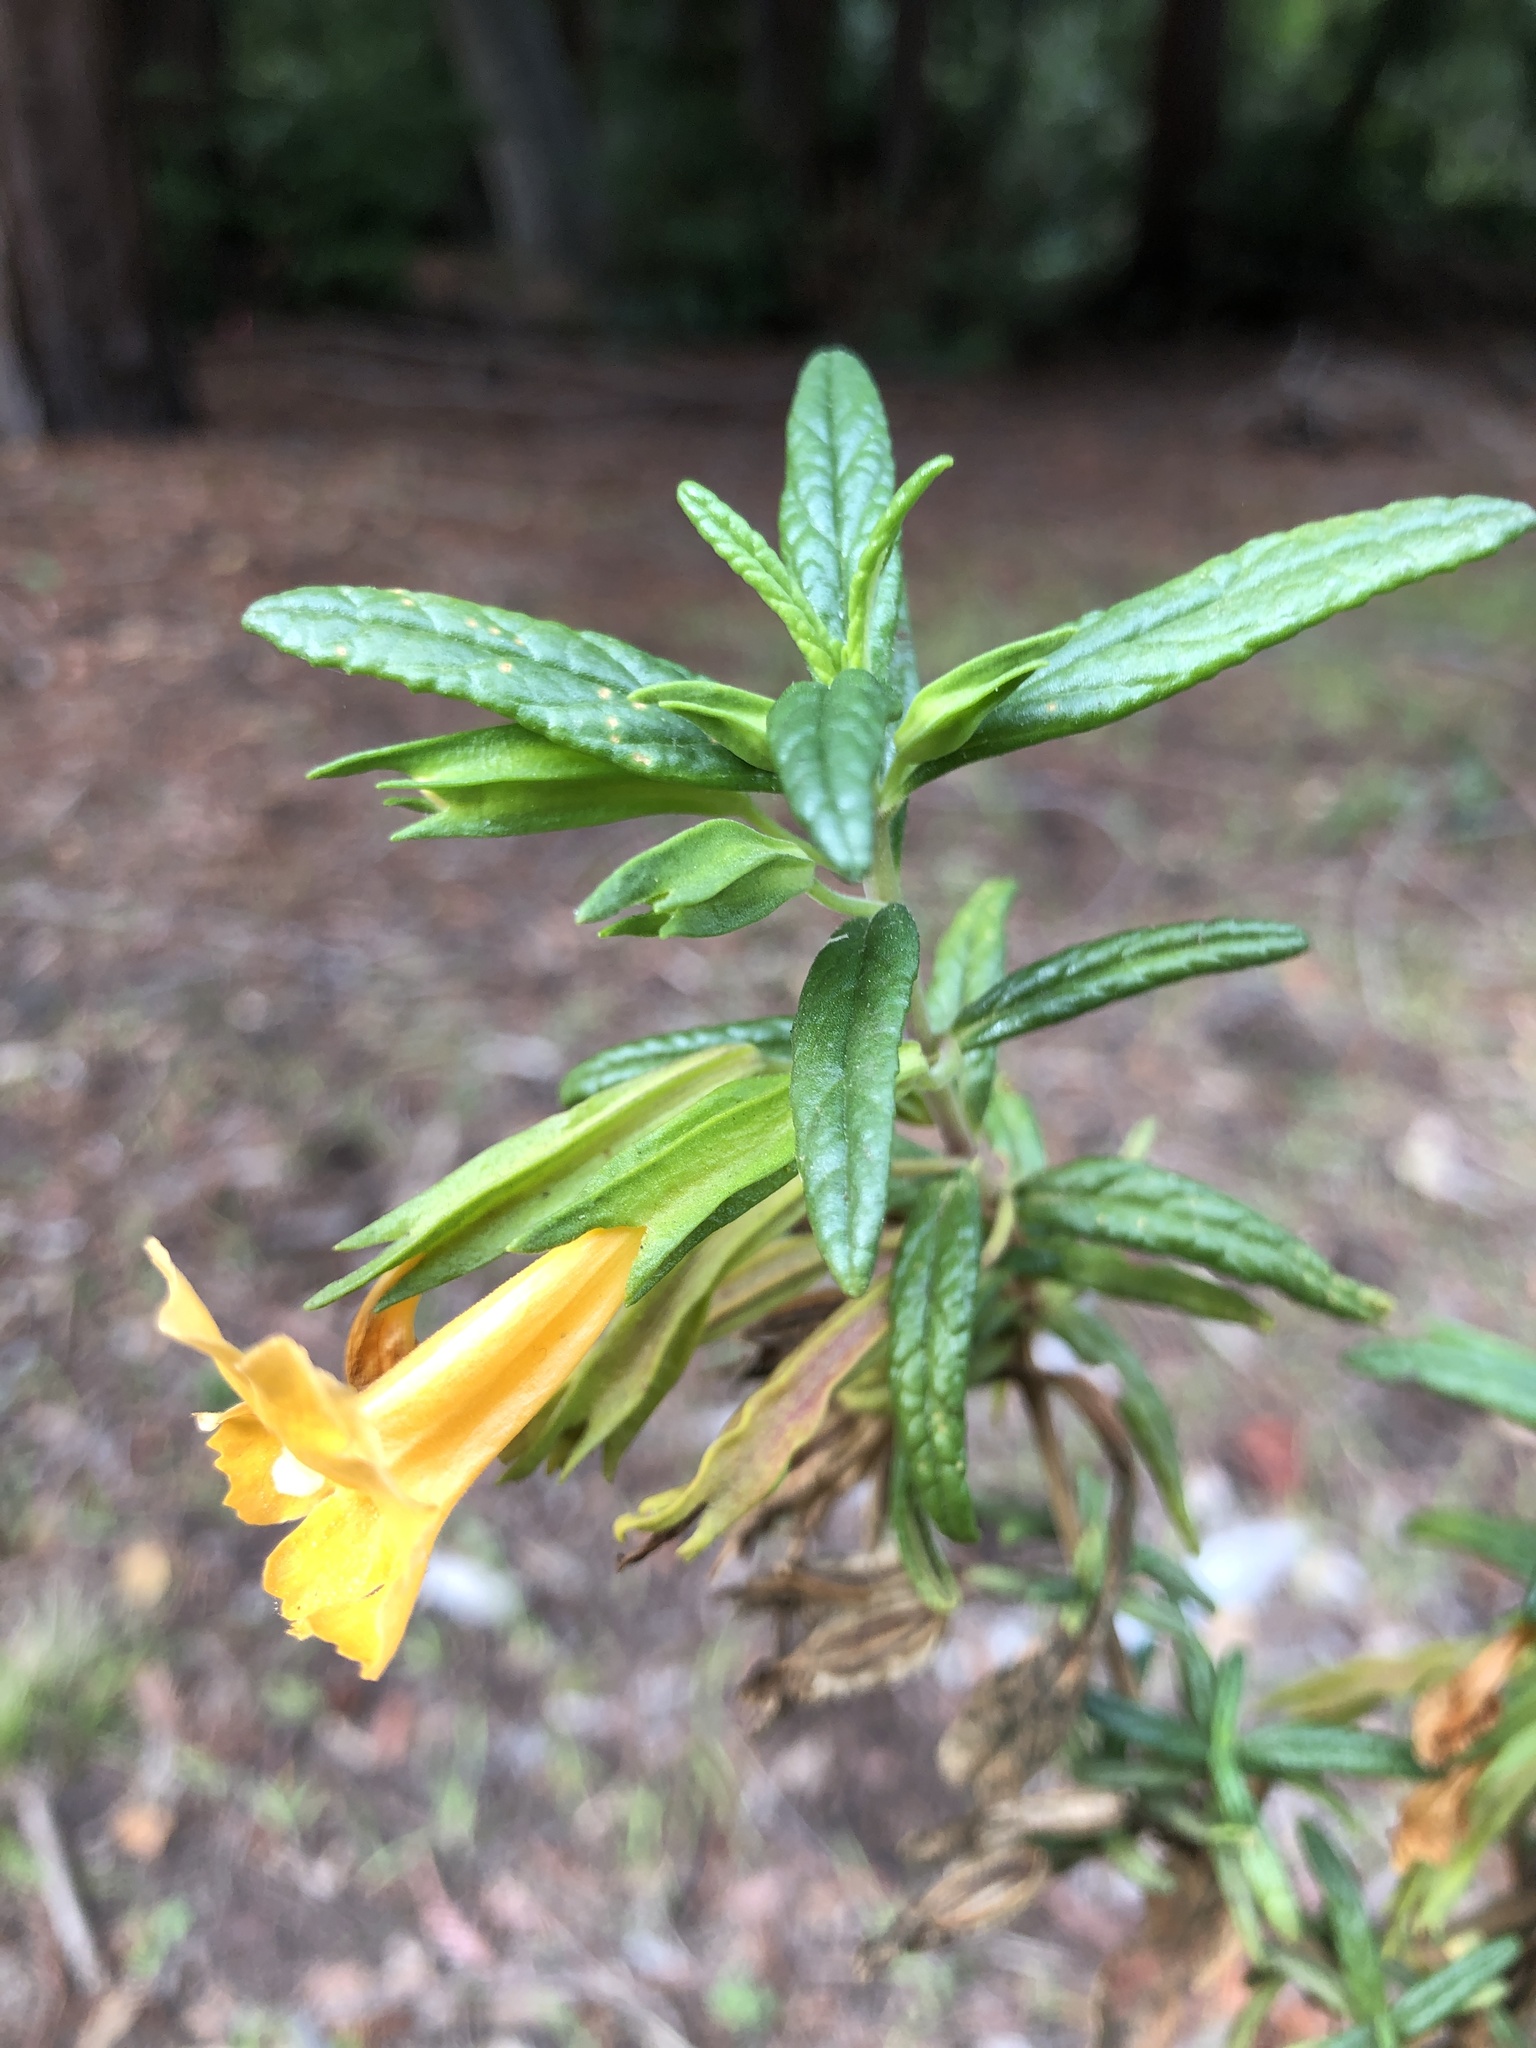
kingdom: Plantae
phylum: Tracheophyta
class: Magnoliopsida
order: Lamiales
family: Phrymaceae
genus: Diplacus
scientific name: Diplacus aurantiacus
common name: Bush monkey-flower
